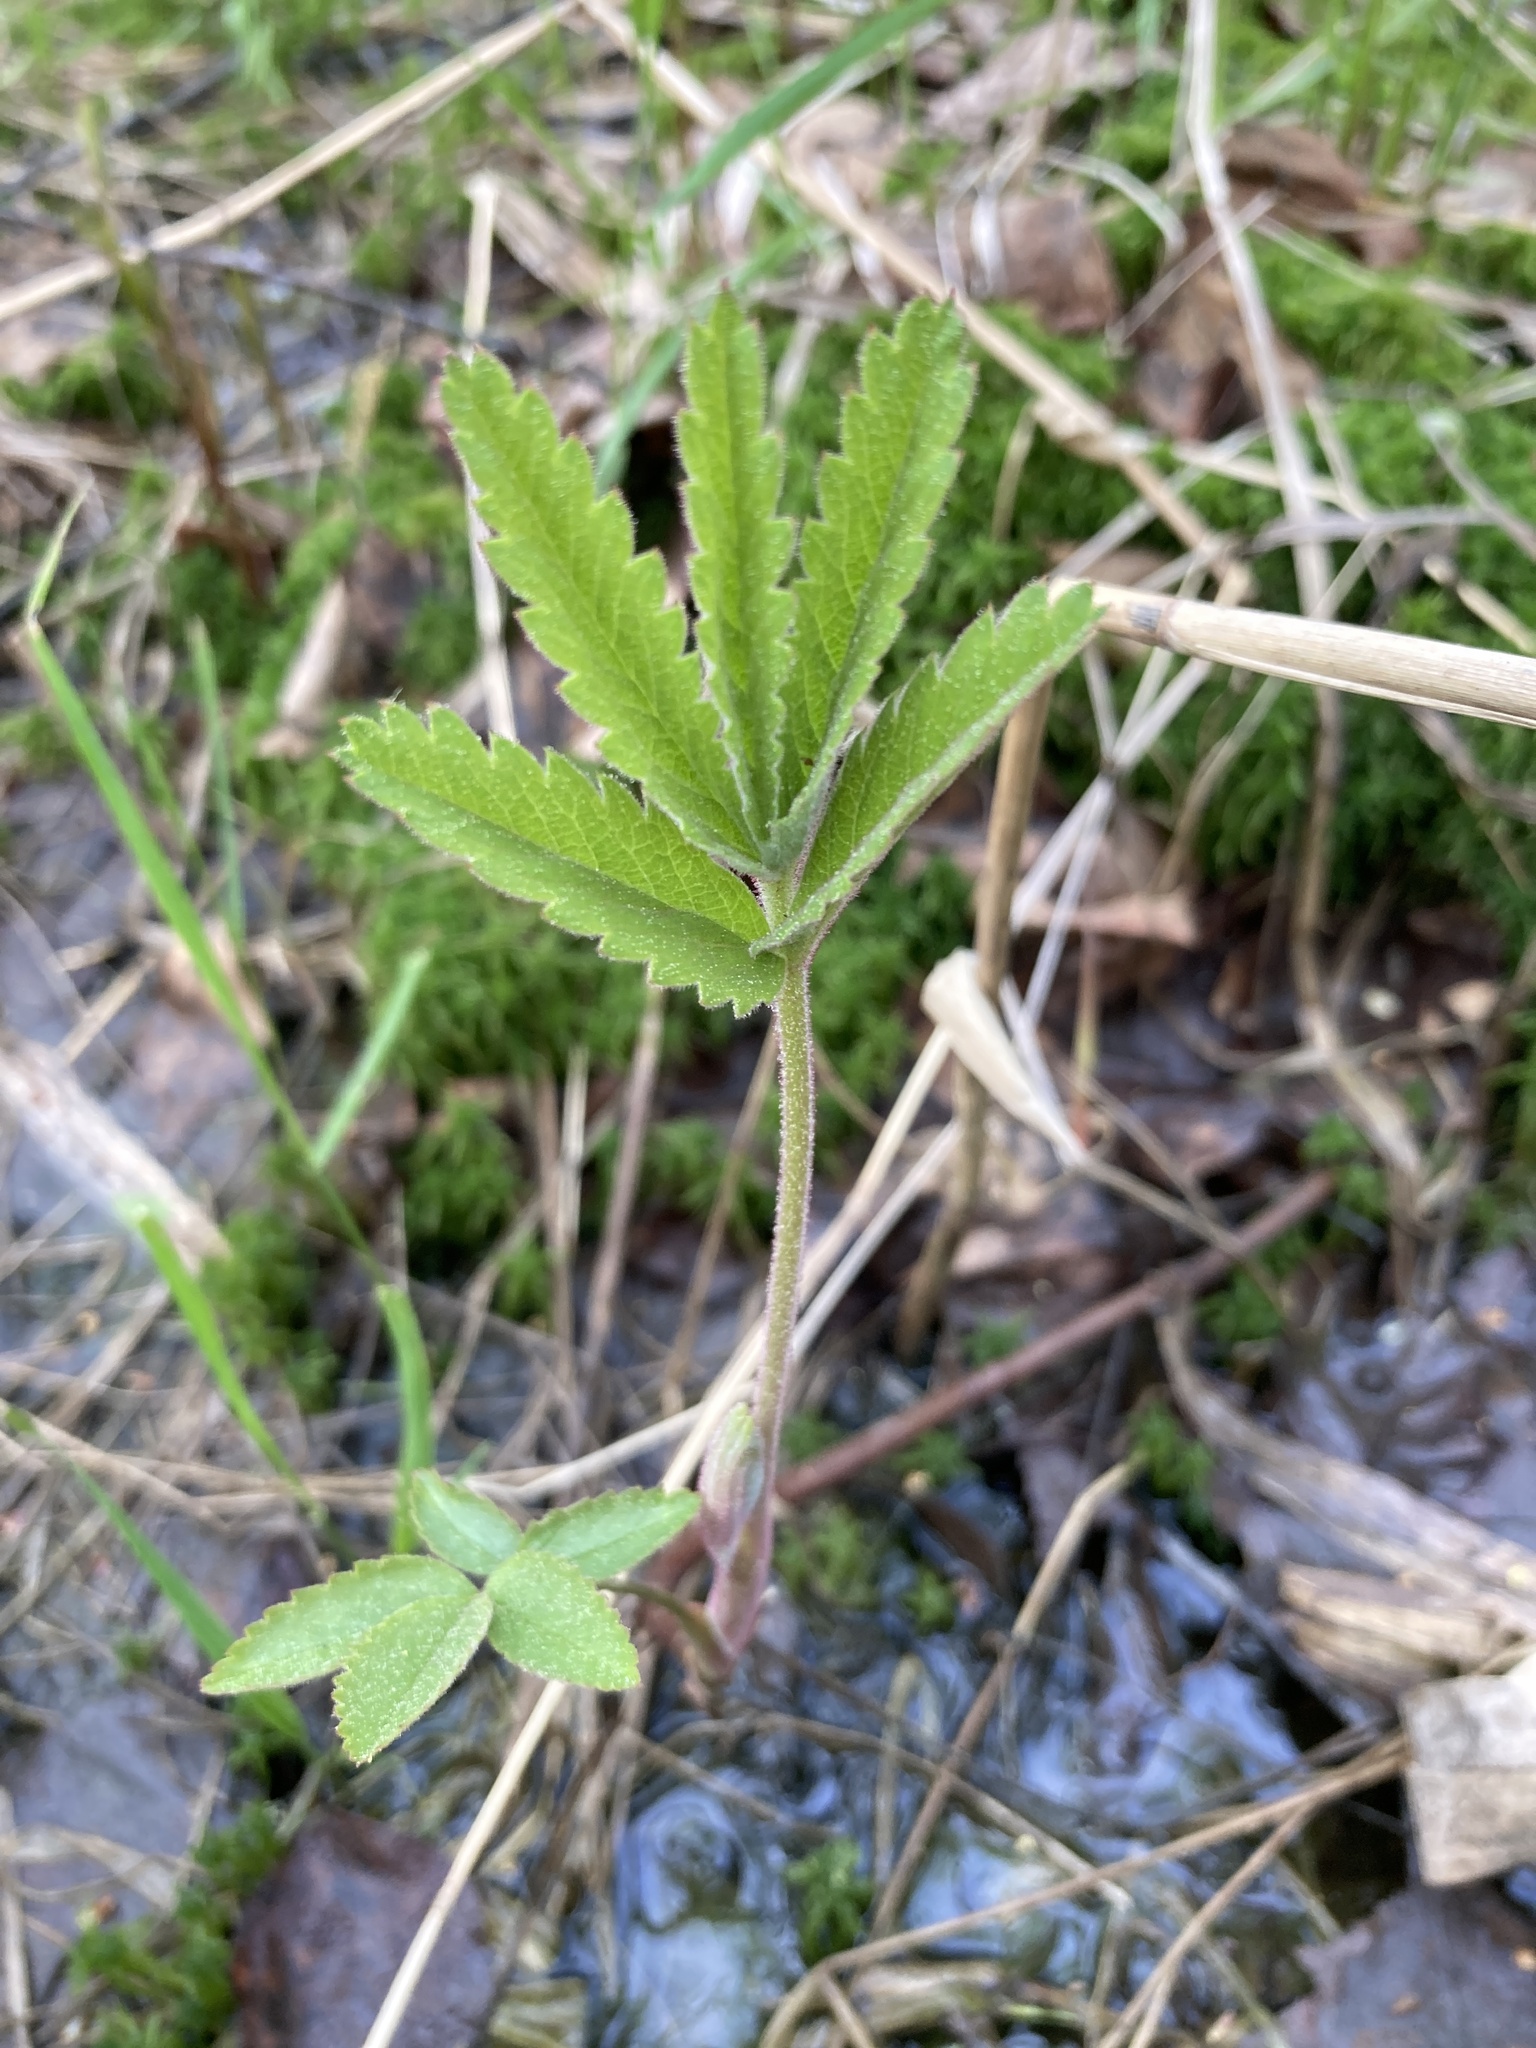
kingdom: Plantae
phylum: Tracheophyta
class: Magnoliopsida
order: Rosales
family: Rosaceae
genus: Comarum
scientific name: Comarum palustre
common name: Marsh cinquefoil
